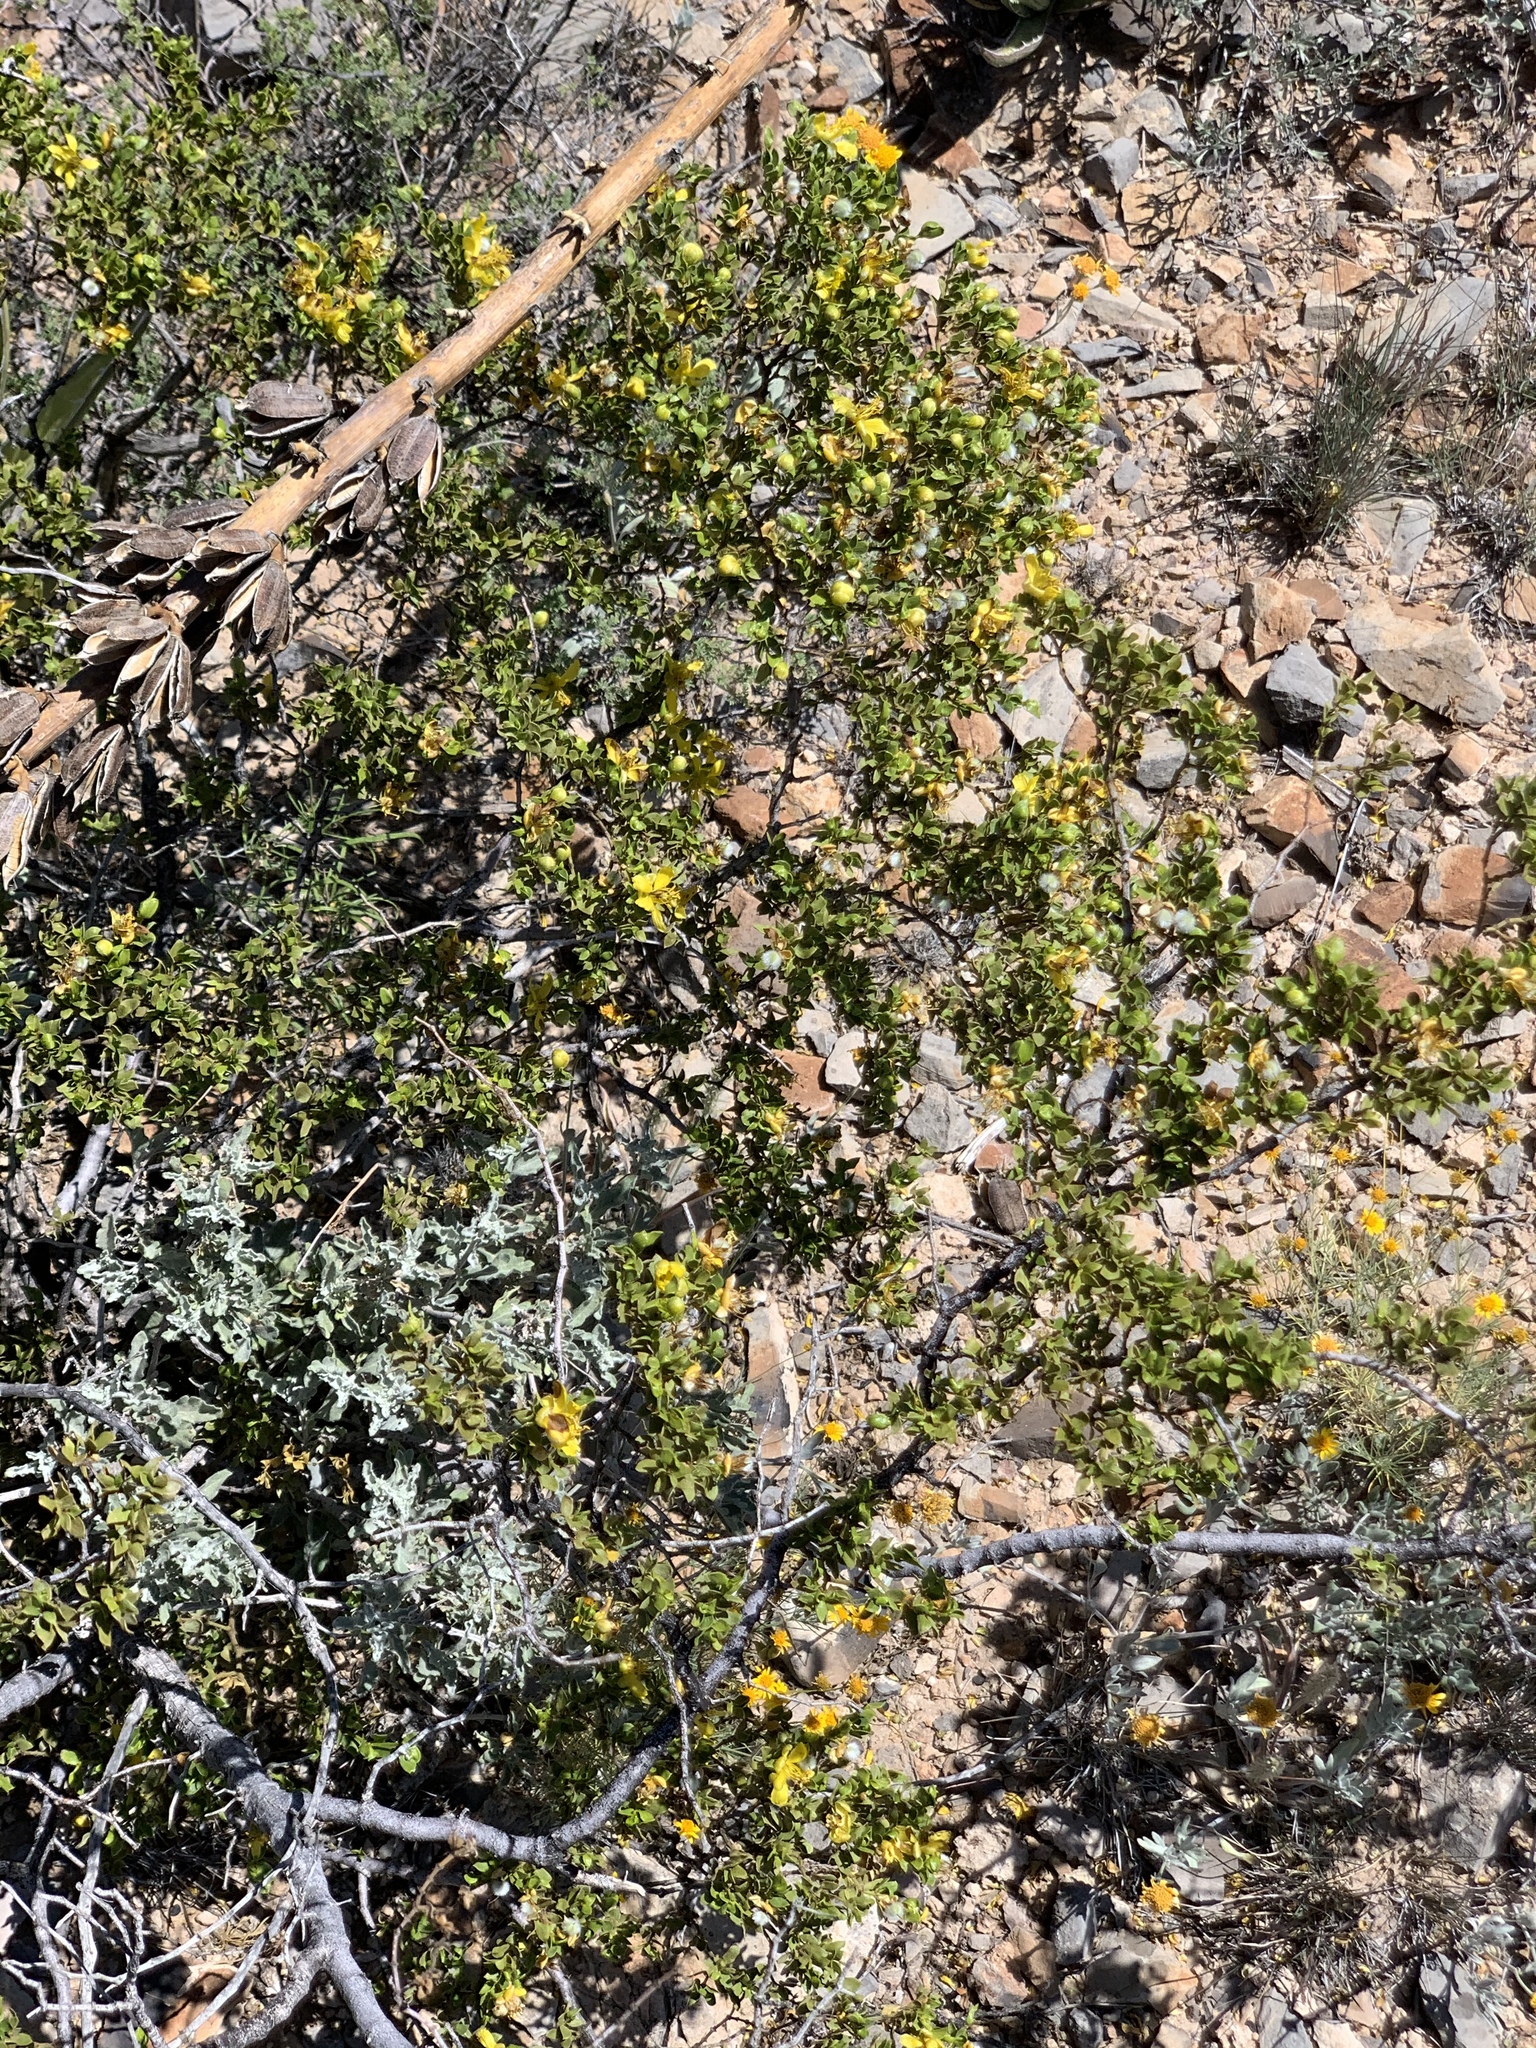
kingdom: Plantae
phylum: Tracheophyta
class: Magnoliopsida
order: Zygophyllales
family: Zygophyllaceae
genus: Larrea
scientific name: Larrea tridentata
